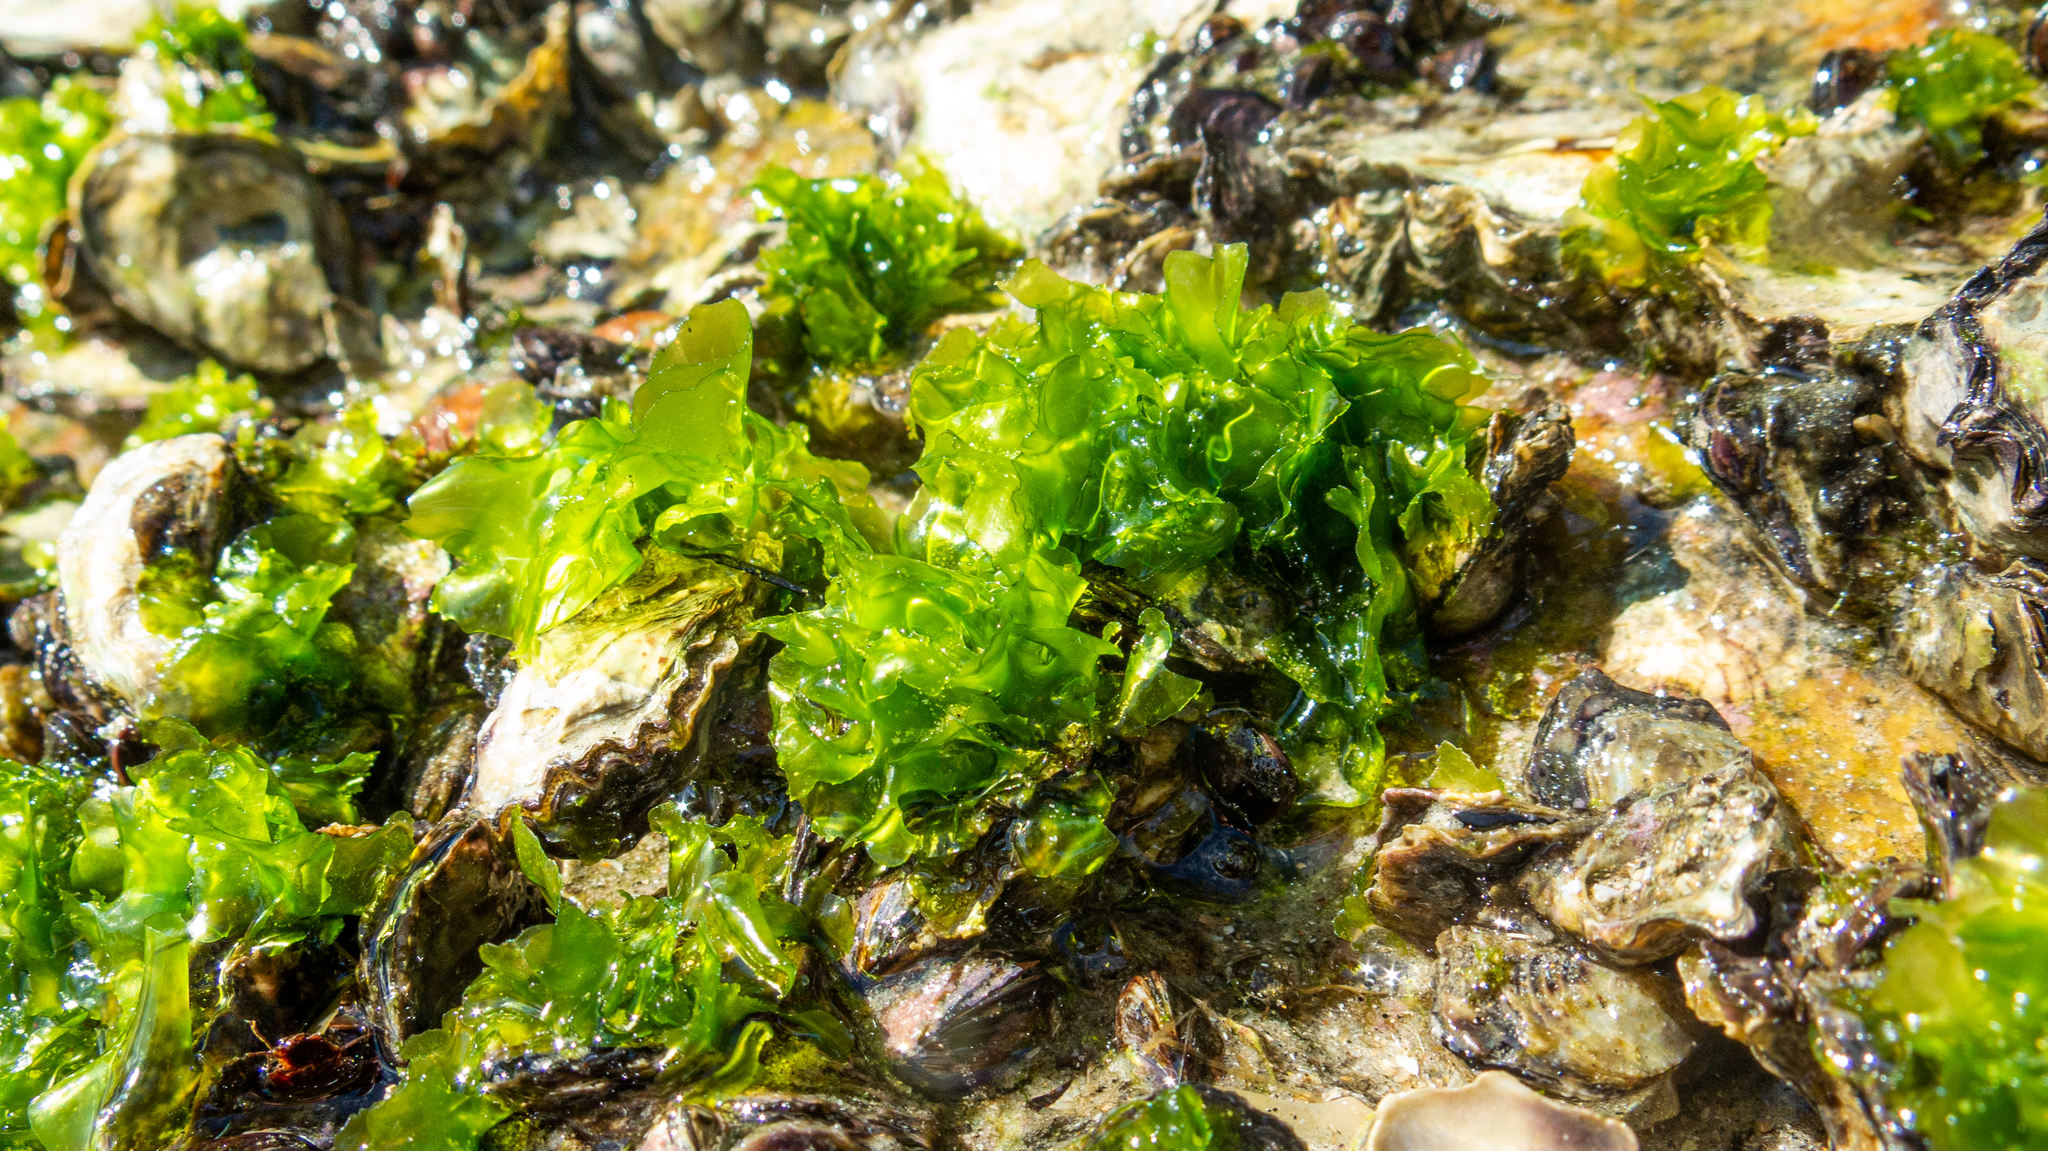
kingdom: Plantae
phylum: Chlorophyta
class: Ulvophyceae
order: Ulvales
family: Ulvaceae
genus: Ulva
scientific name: Ulva lactuca
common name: Sea lettuce
